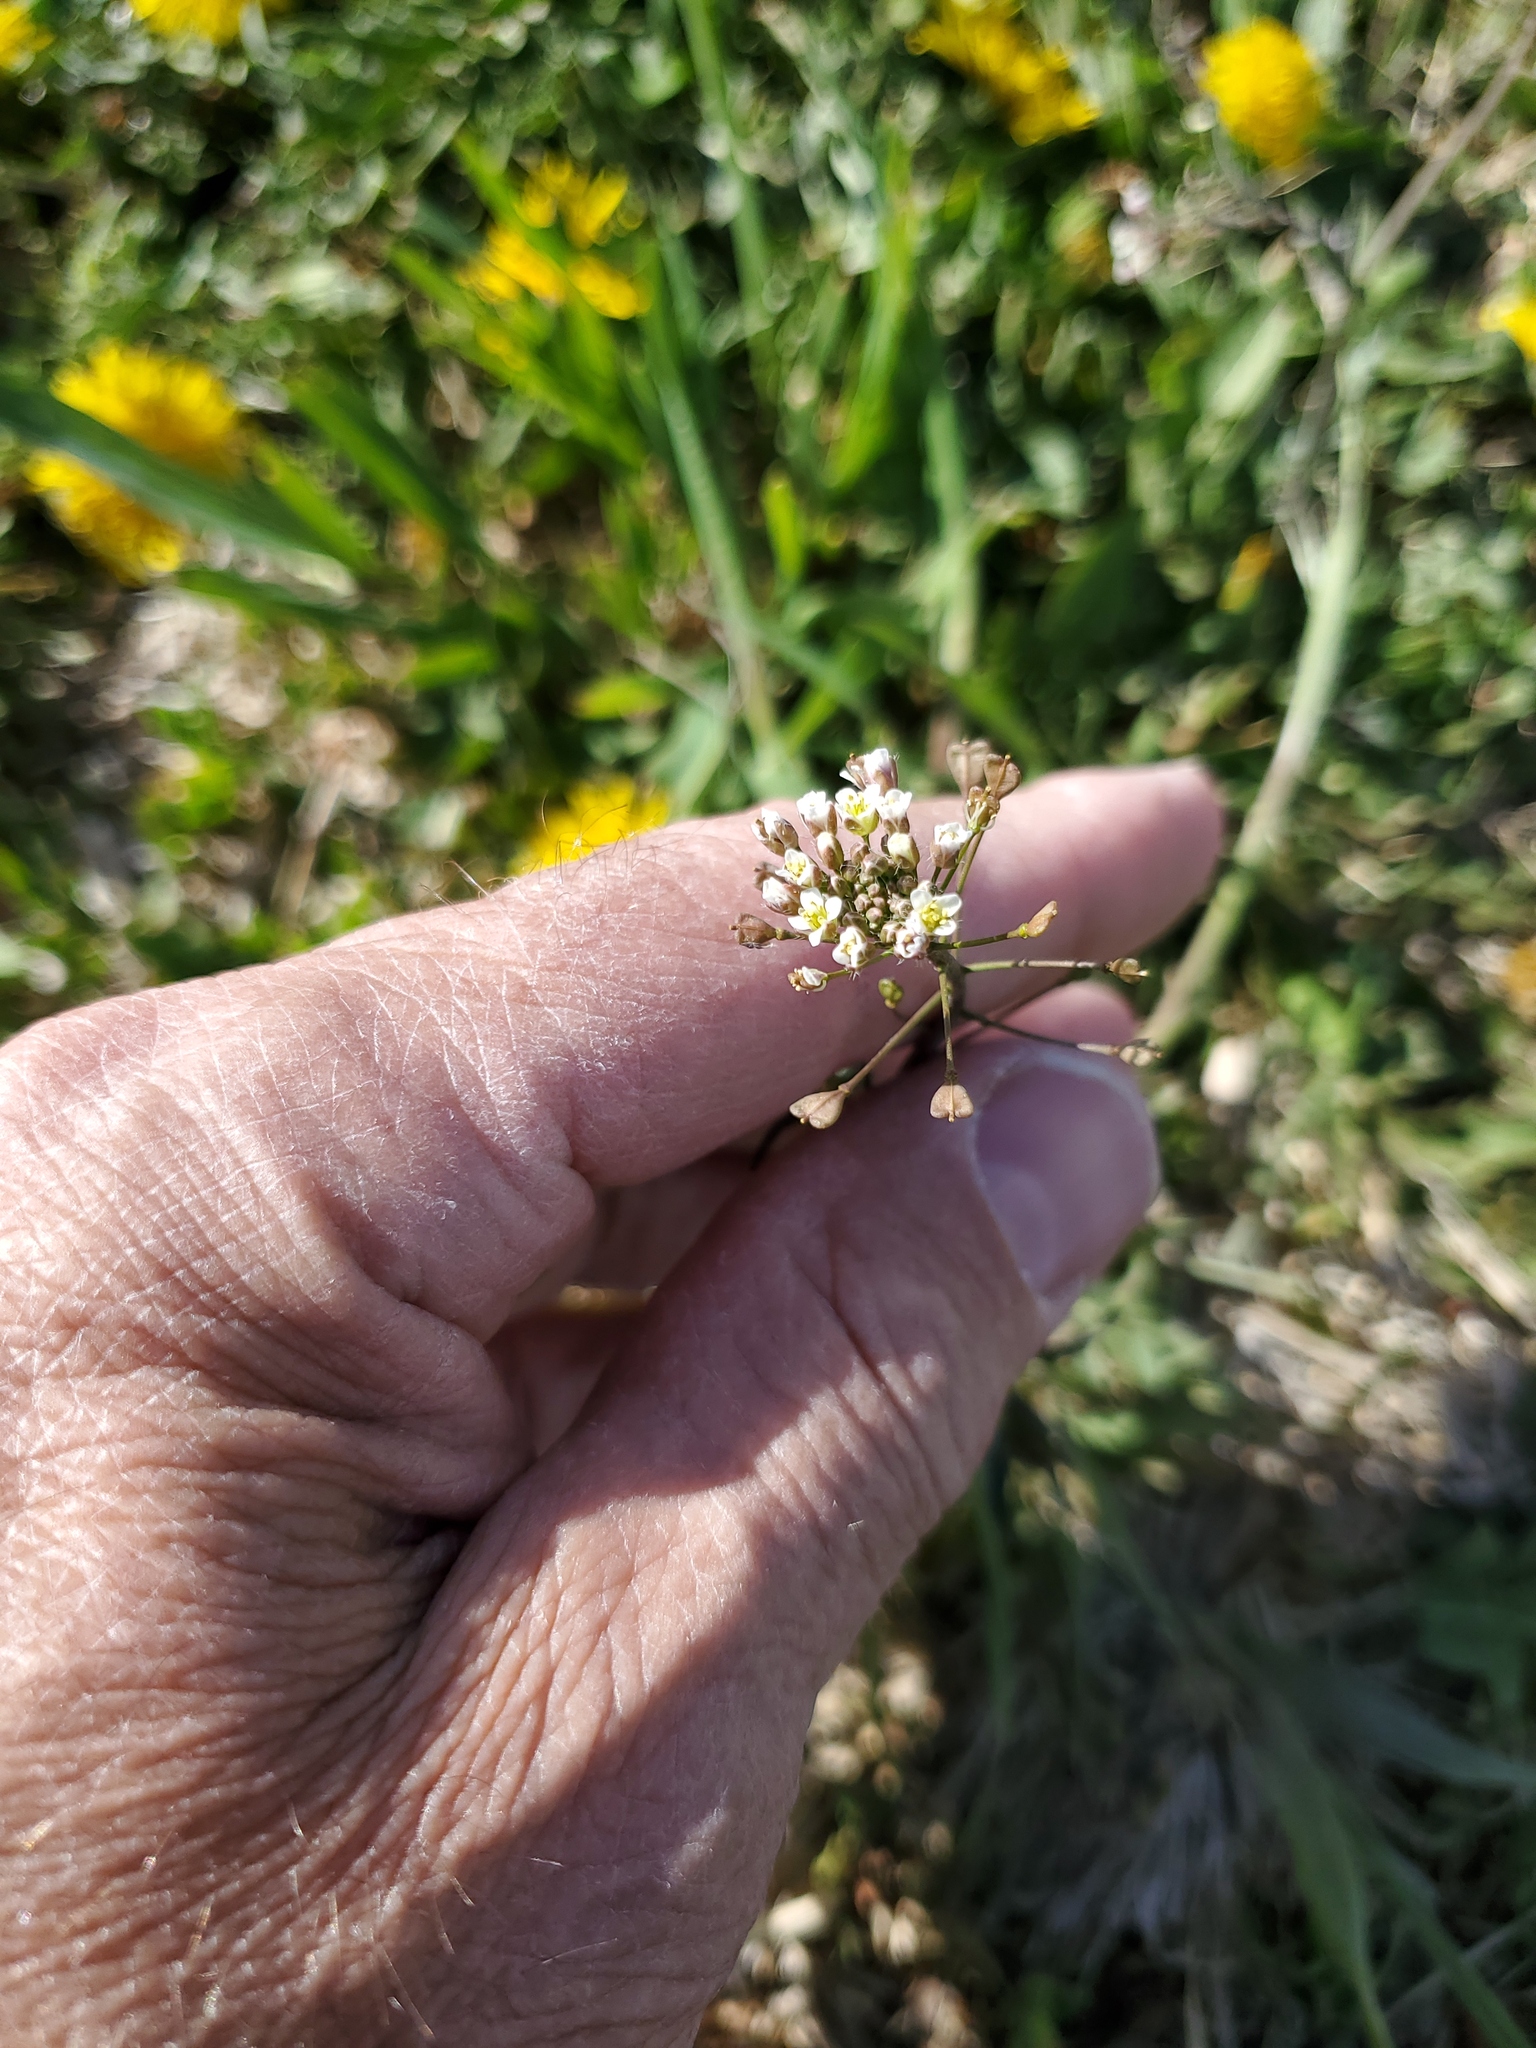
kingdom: Plantae
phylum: Tracheophyta
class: Magnoliopsida
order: Brassicales
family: Brassicaceae
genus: Capsella
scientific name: Capsella bursa-pastoris
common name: Shepherd's purse
